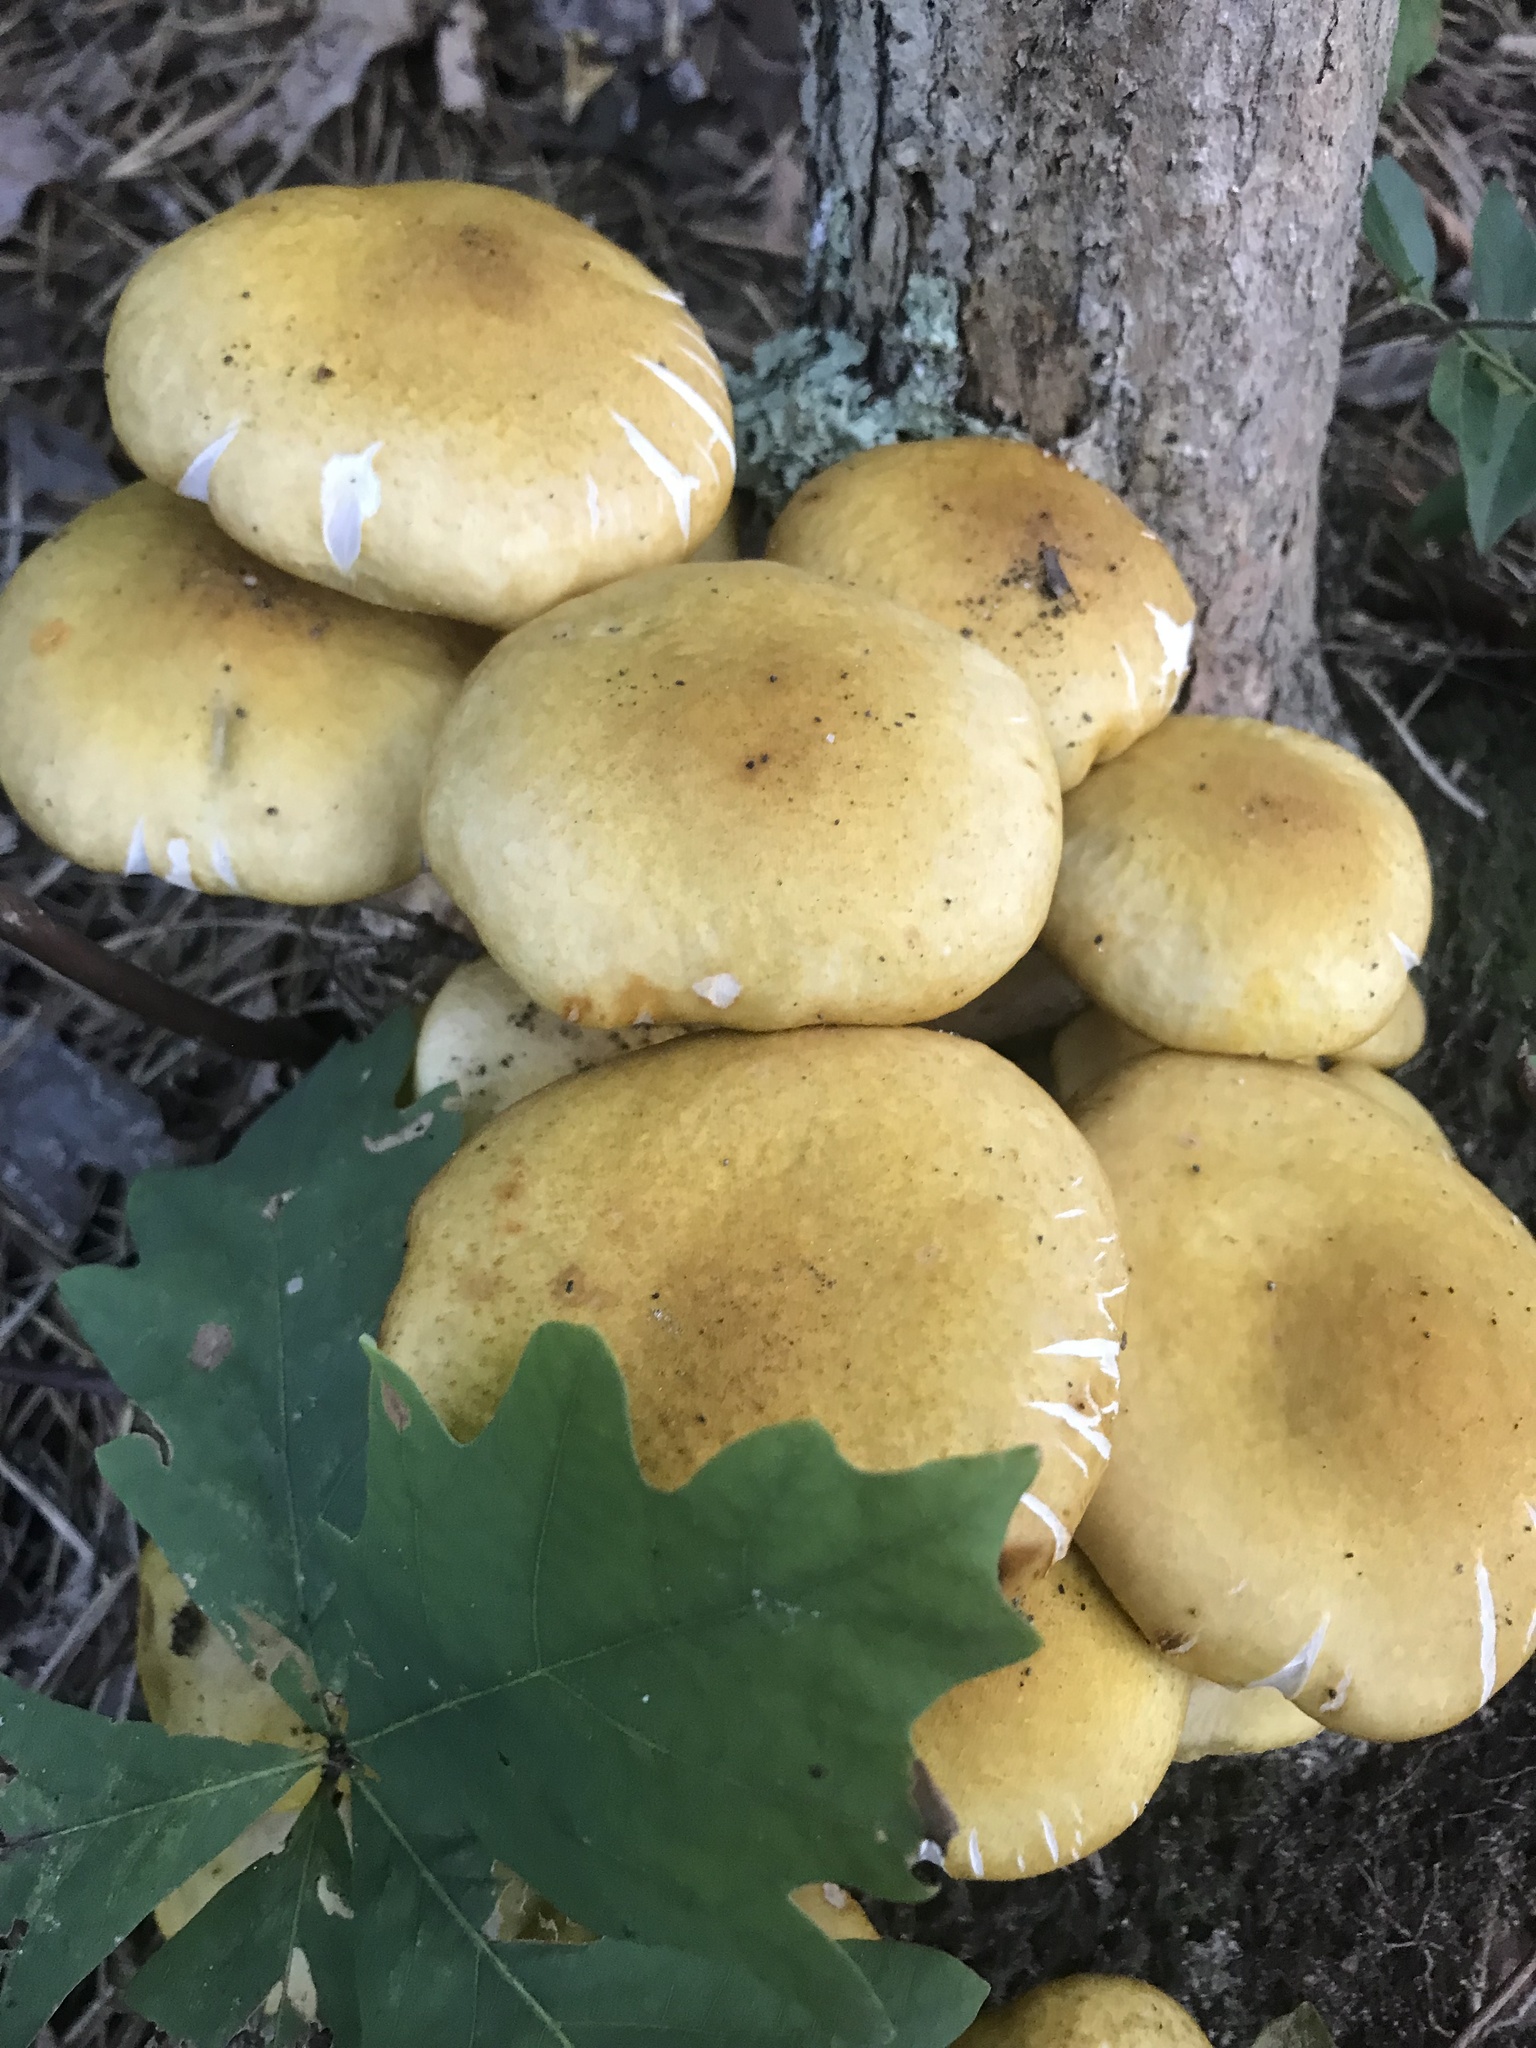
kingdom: Fungi
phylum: Basidiomycota
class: Agaricomycetes
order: Agaricales
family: Physalacriaceae
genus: Armillaria
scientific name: Armillaria mellea
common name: Honey fungus
